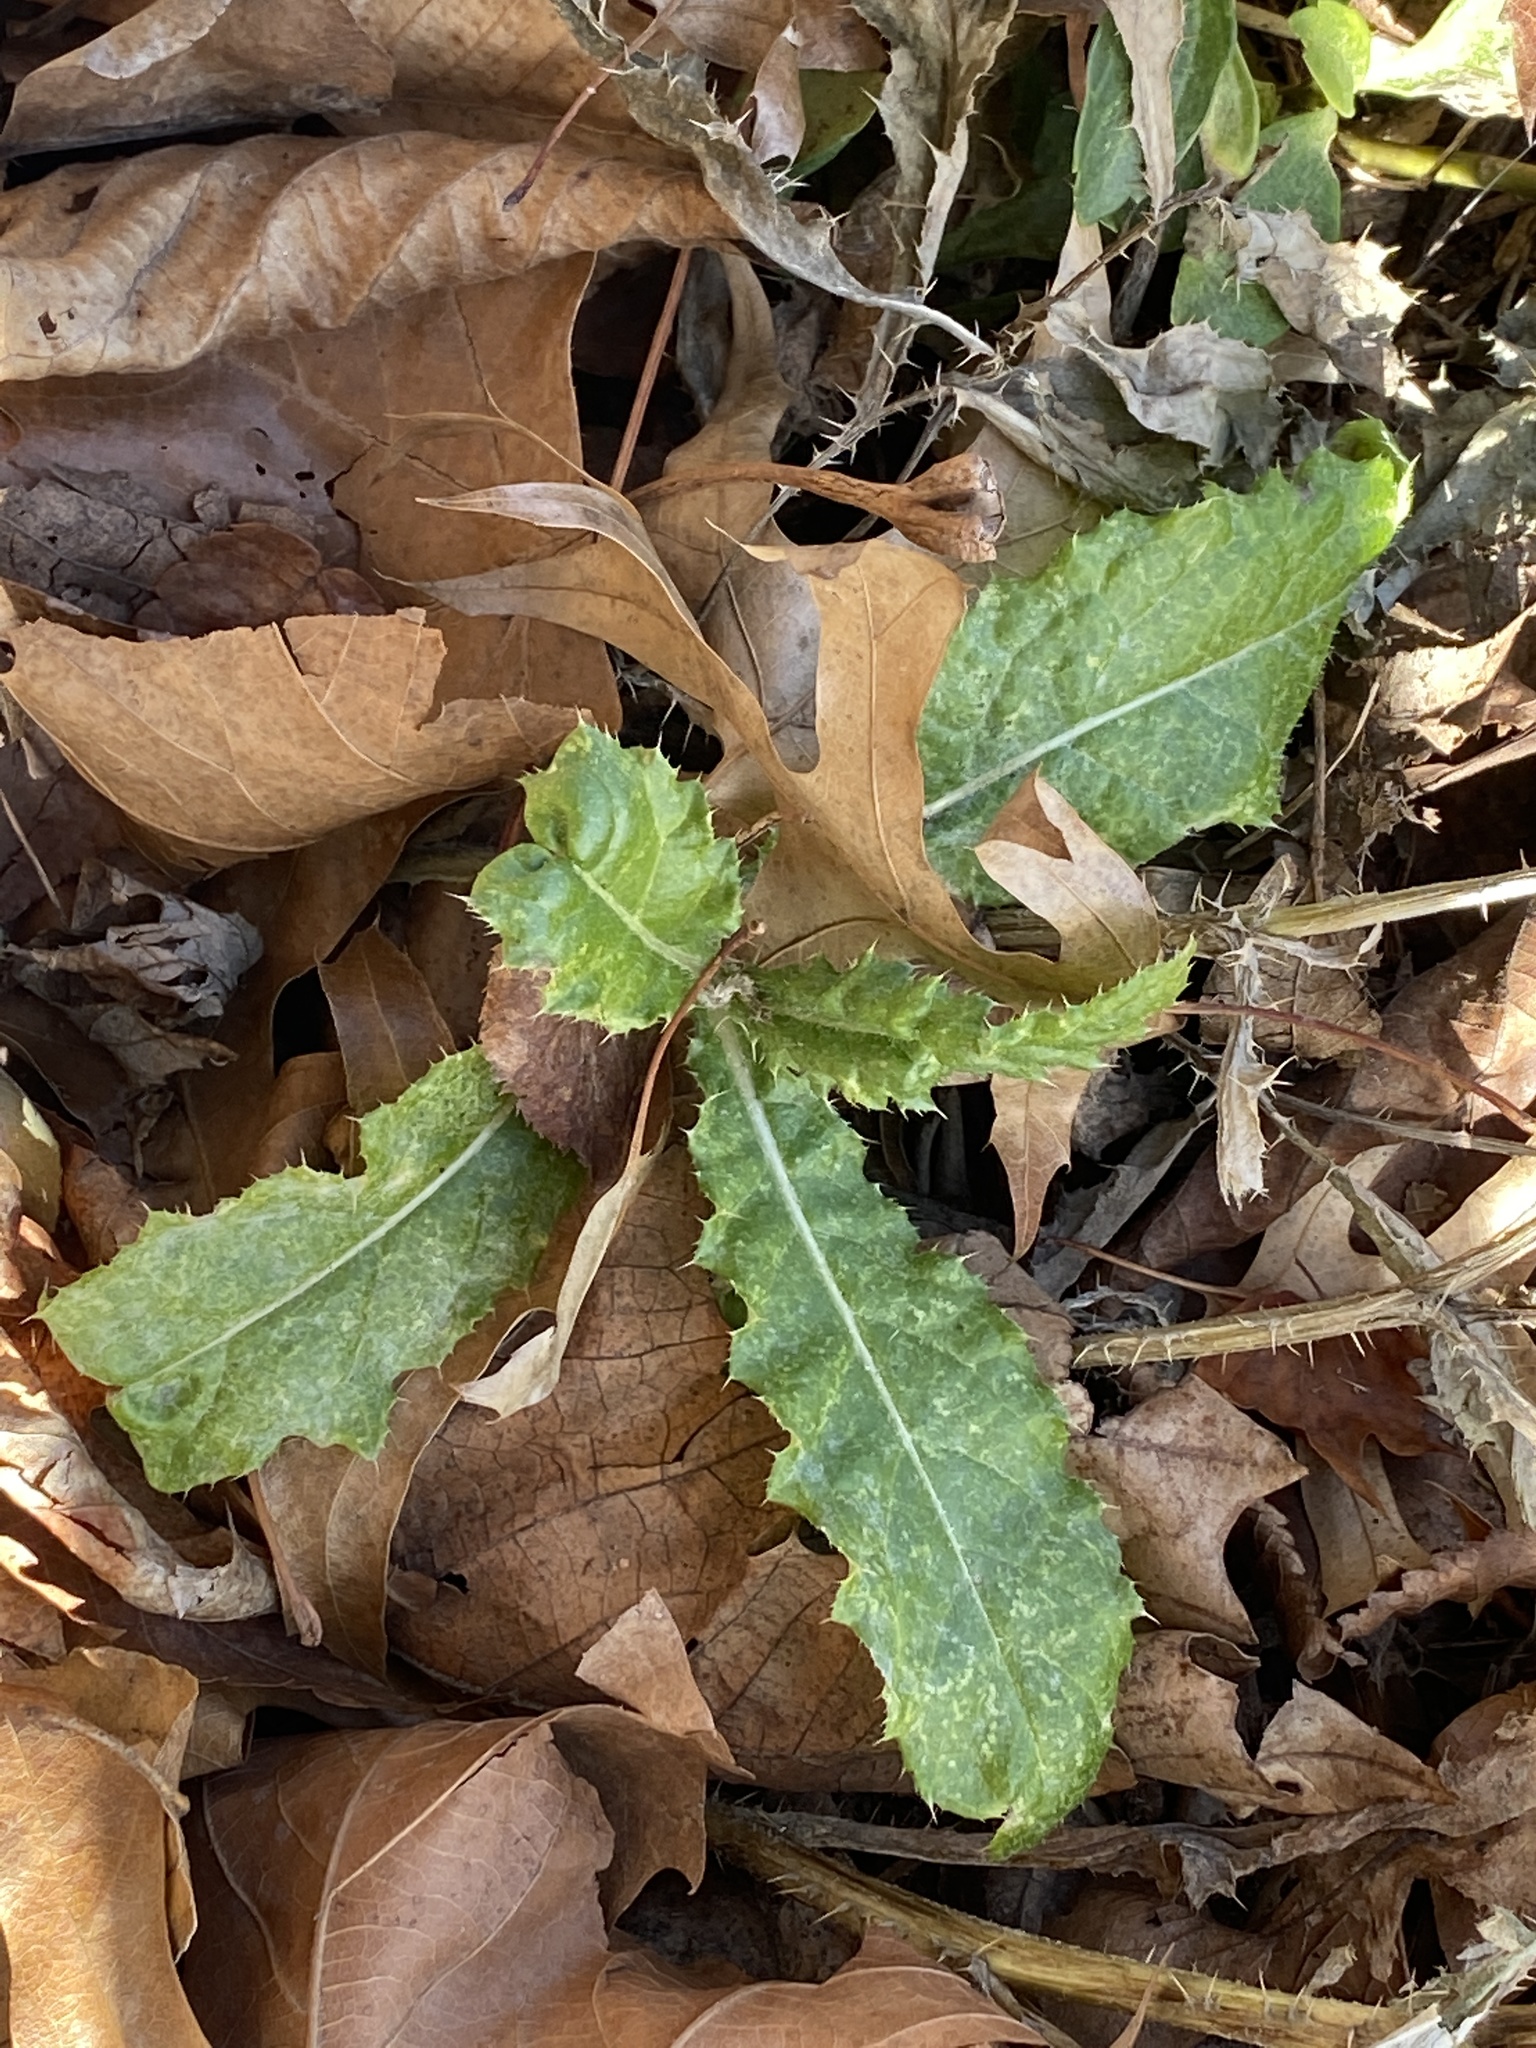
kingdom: Plantae
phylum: Tracheophyta
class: Magnoliopsida
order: Asterales
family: Asteraceae
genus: Cirsium
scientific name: Cirsium arvense
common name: Creeping thistle
